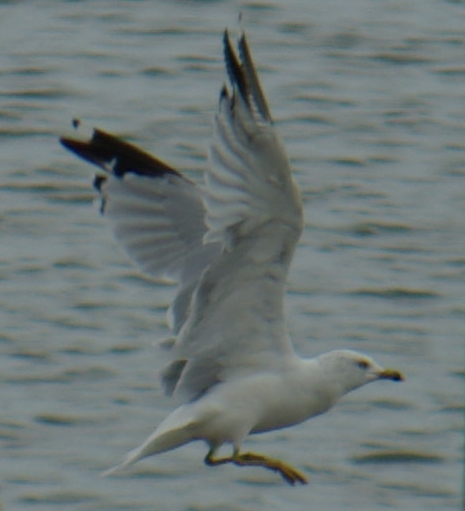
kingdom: Animalia
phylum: Chordata
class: Aves
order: Charadriiformes
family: Laridae
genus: Larus
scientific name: Larus delawarensis
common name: Ring-billed gull
